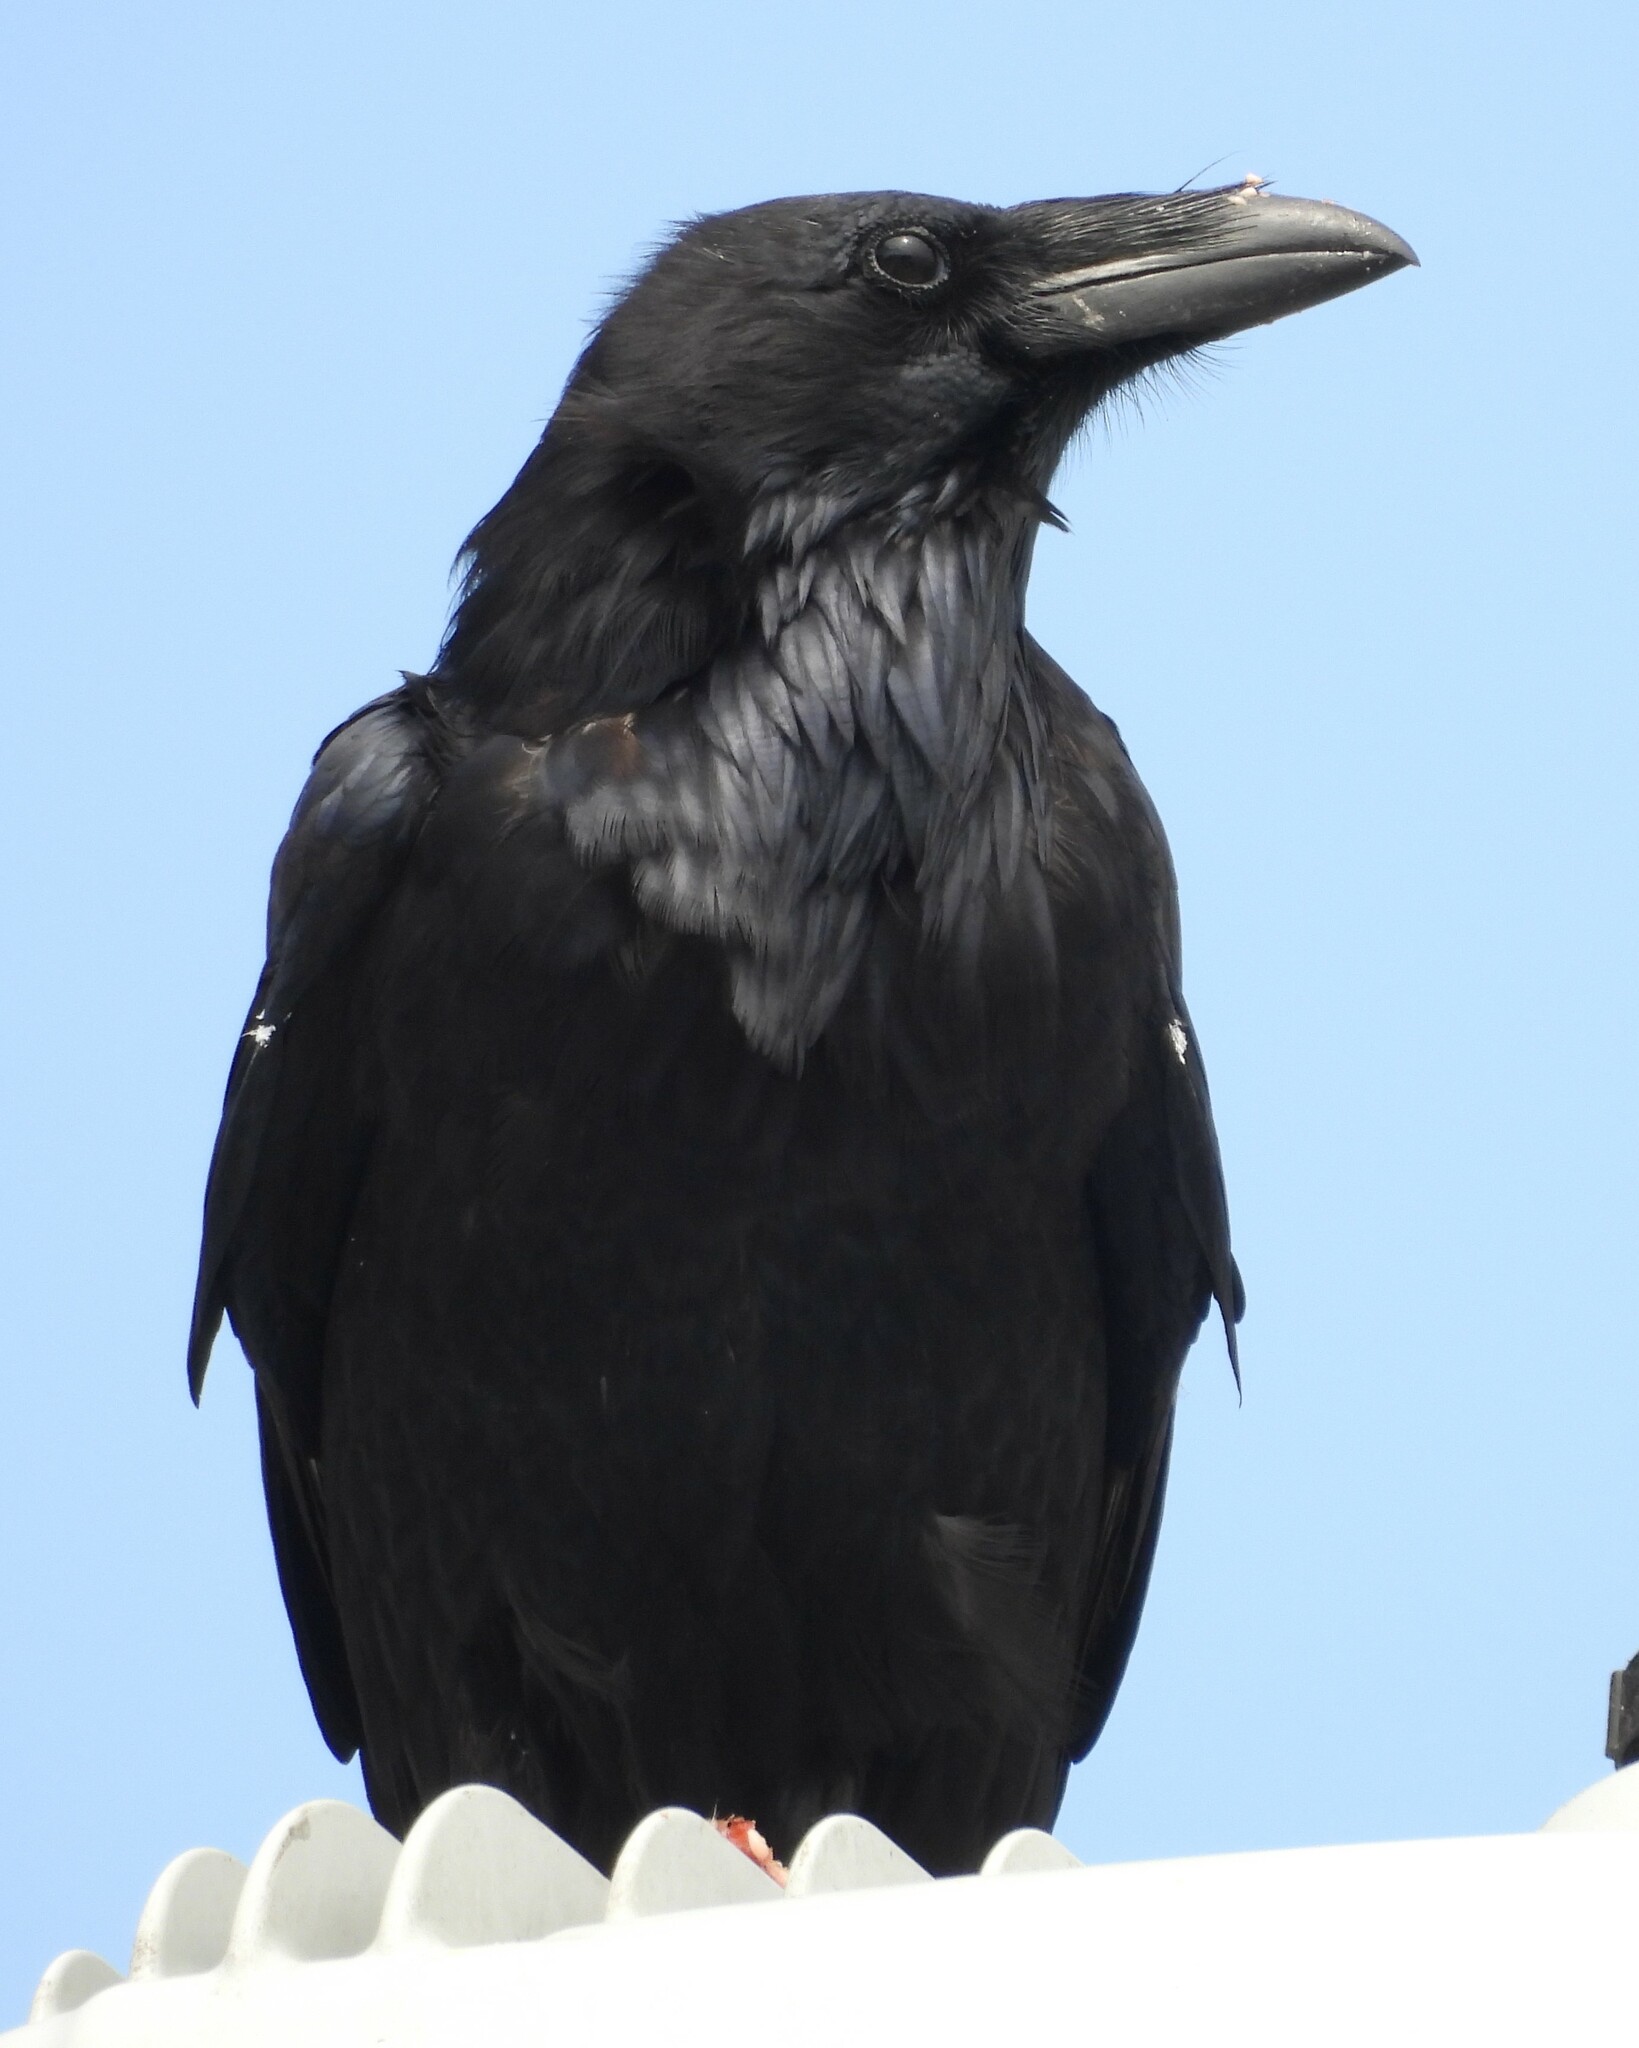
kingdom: Animalia
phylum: Chordata
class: Aves
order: Passeriformes
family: Corvidae
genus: Corvus
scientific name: Corvus corax
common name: Common raven
